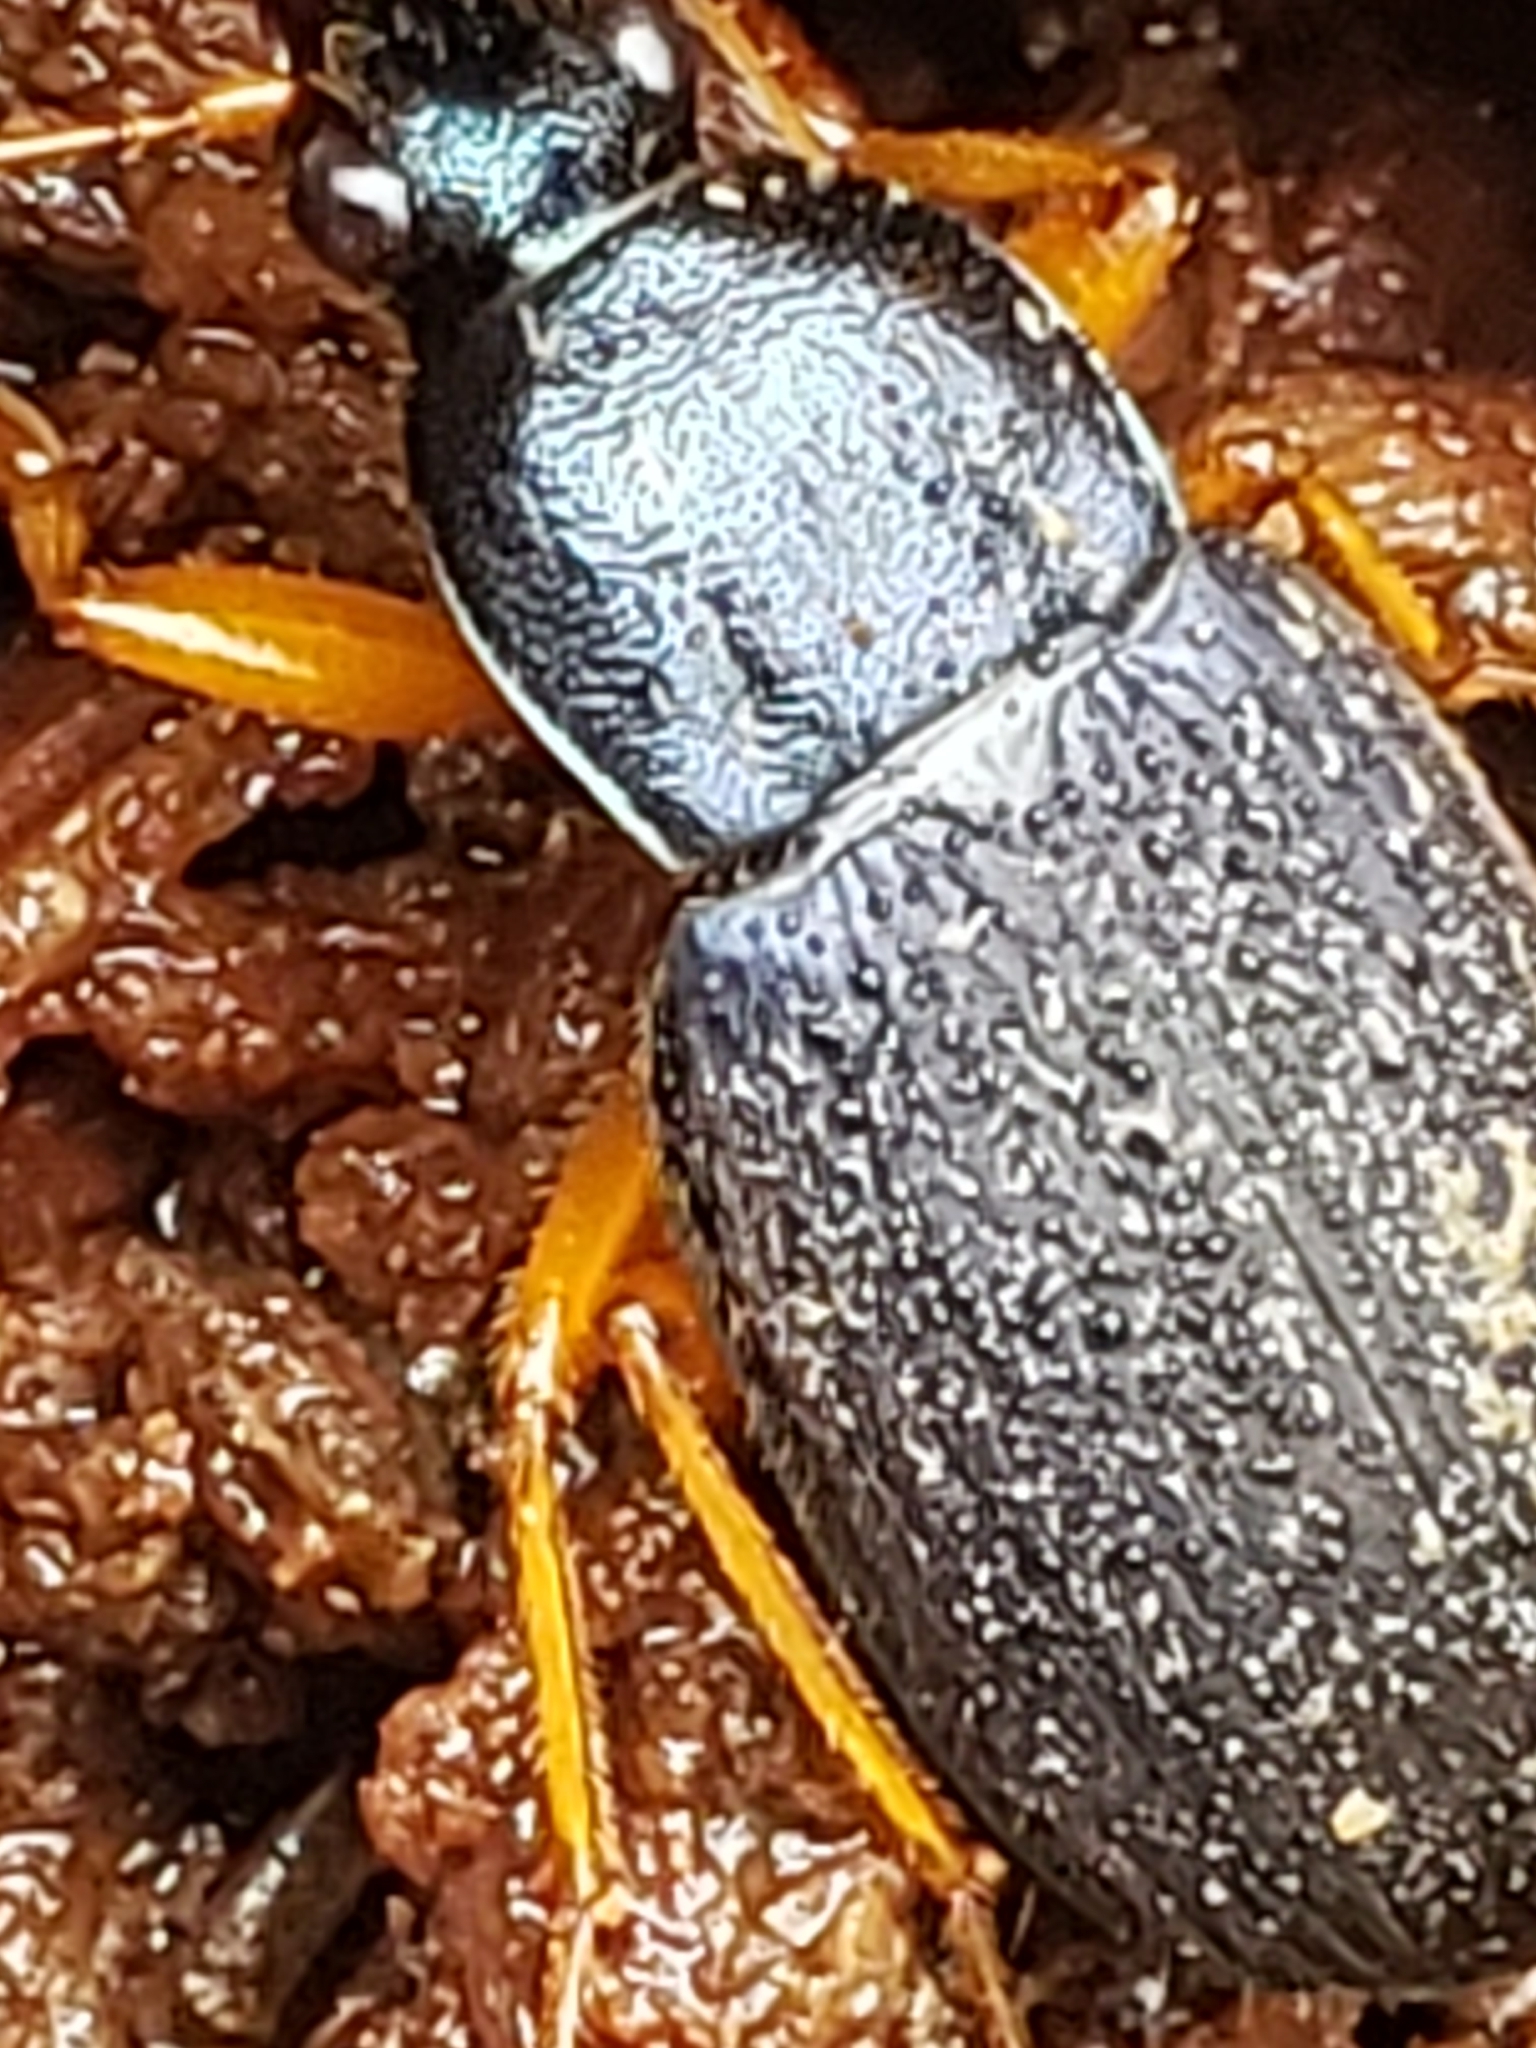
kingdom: Animalia
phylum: Arthropoda
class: Insecta
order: Coleoptera
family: Carabidae
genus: Chlaenius
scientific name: Chlaenius laticollis
